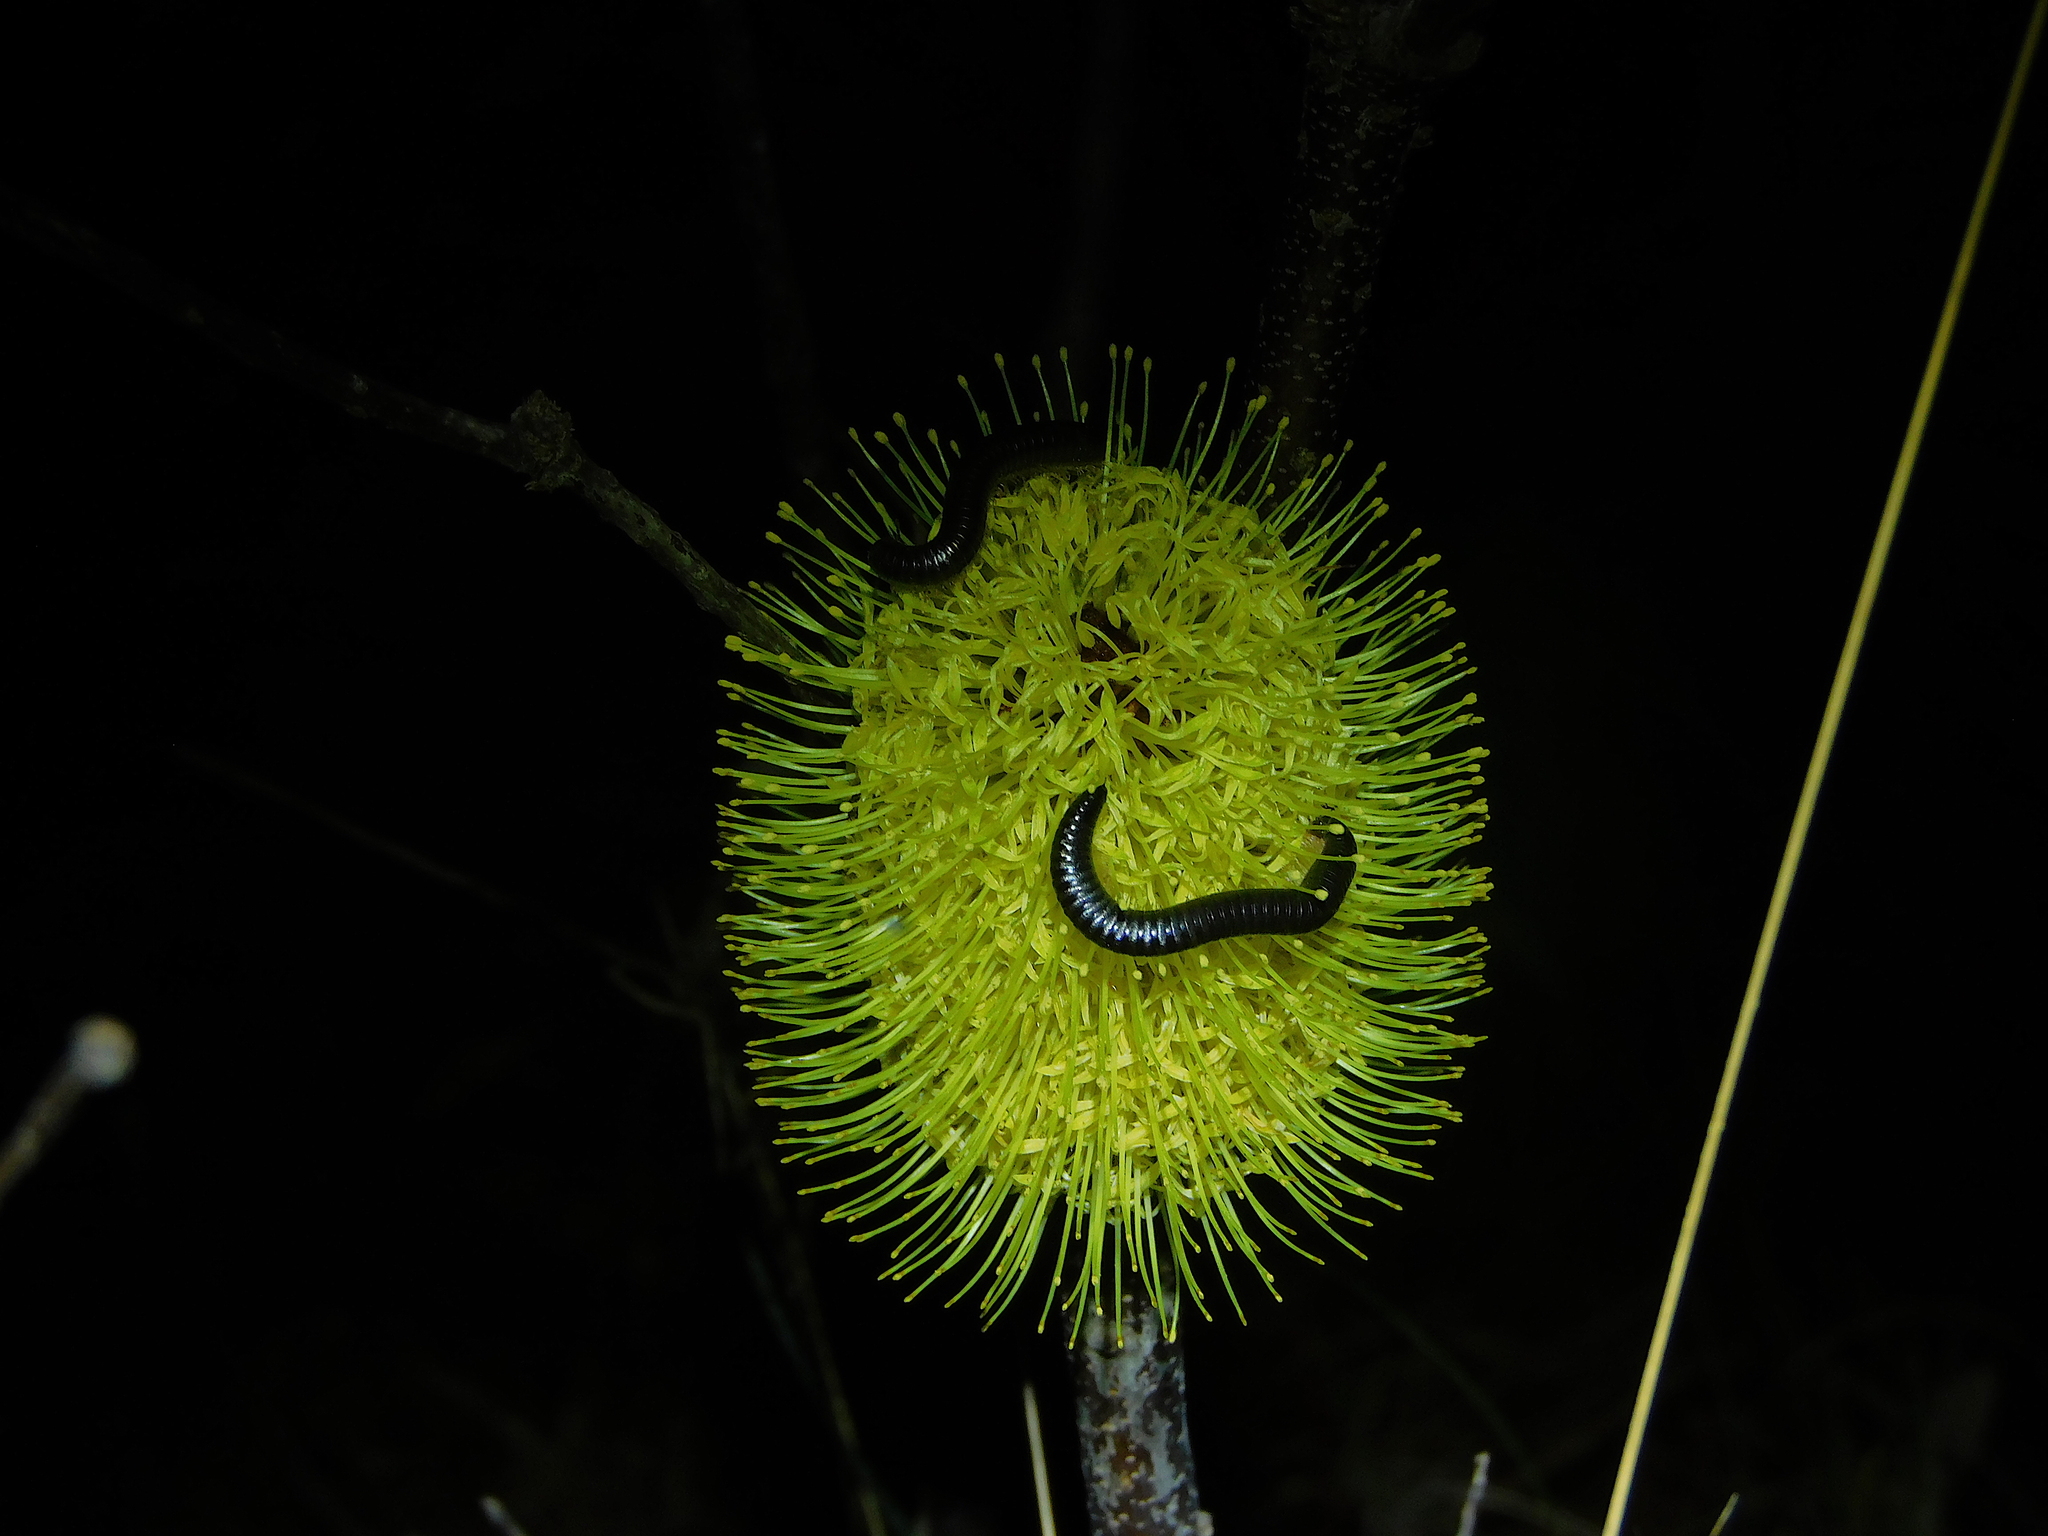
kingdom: Animalia
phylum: Arthropoda
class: Diplopoda
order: Julida
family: Julidae
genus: Ommatoiulus
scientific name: Ommatoiulus moreleti
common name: Portuguese millipede
